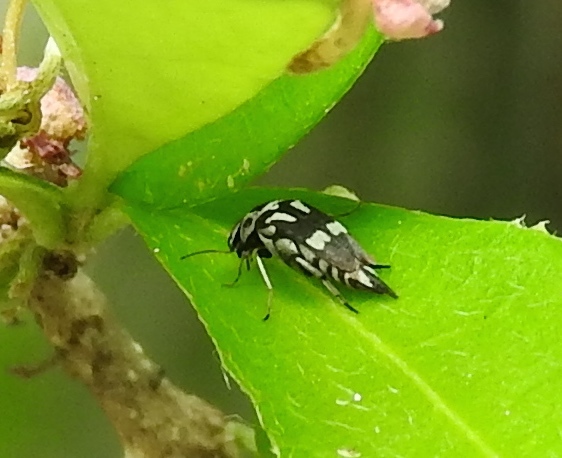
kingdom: Animalia
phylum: Arthropoda
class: Insecta
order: Coleoptera
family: Mordellidae
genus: Mordella
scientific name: Mordella
